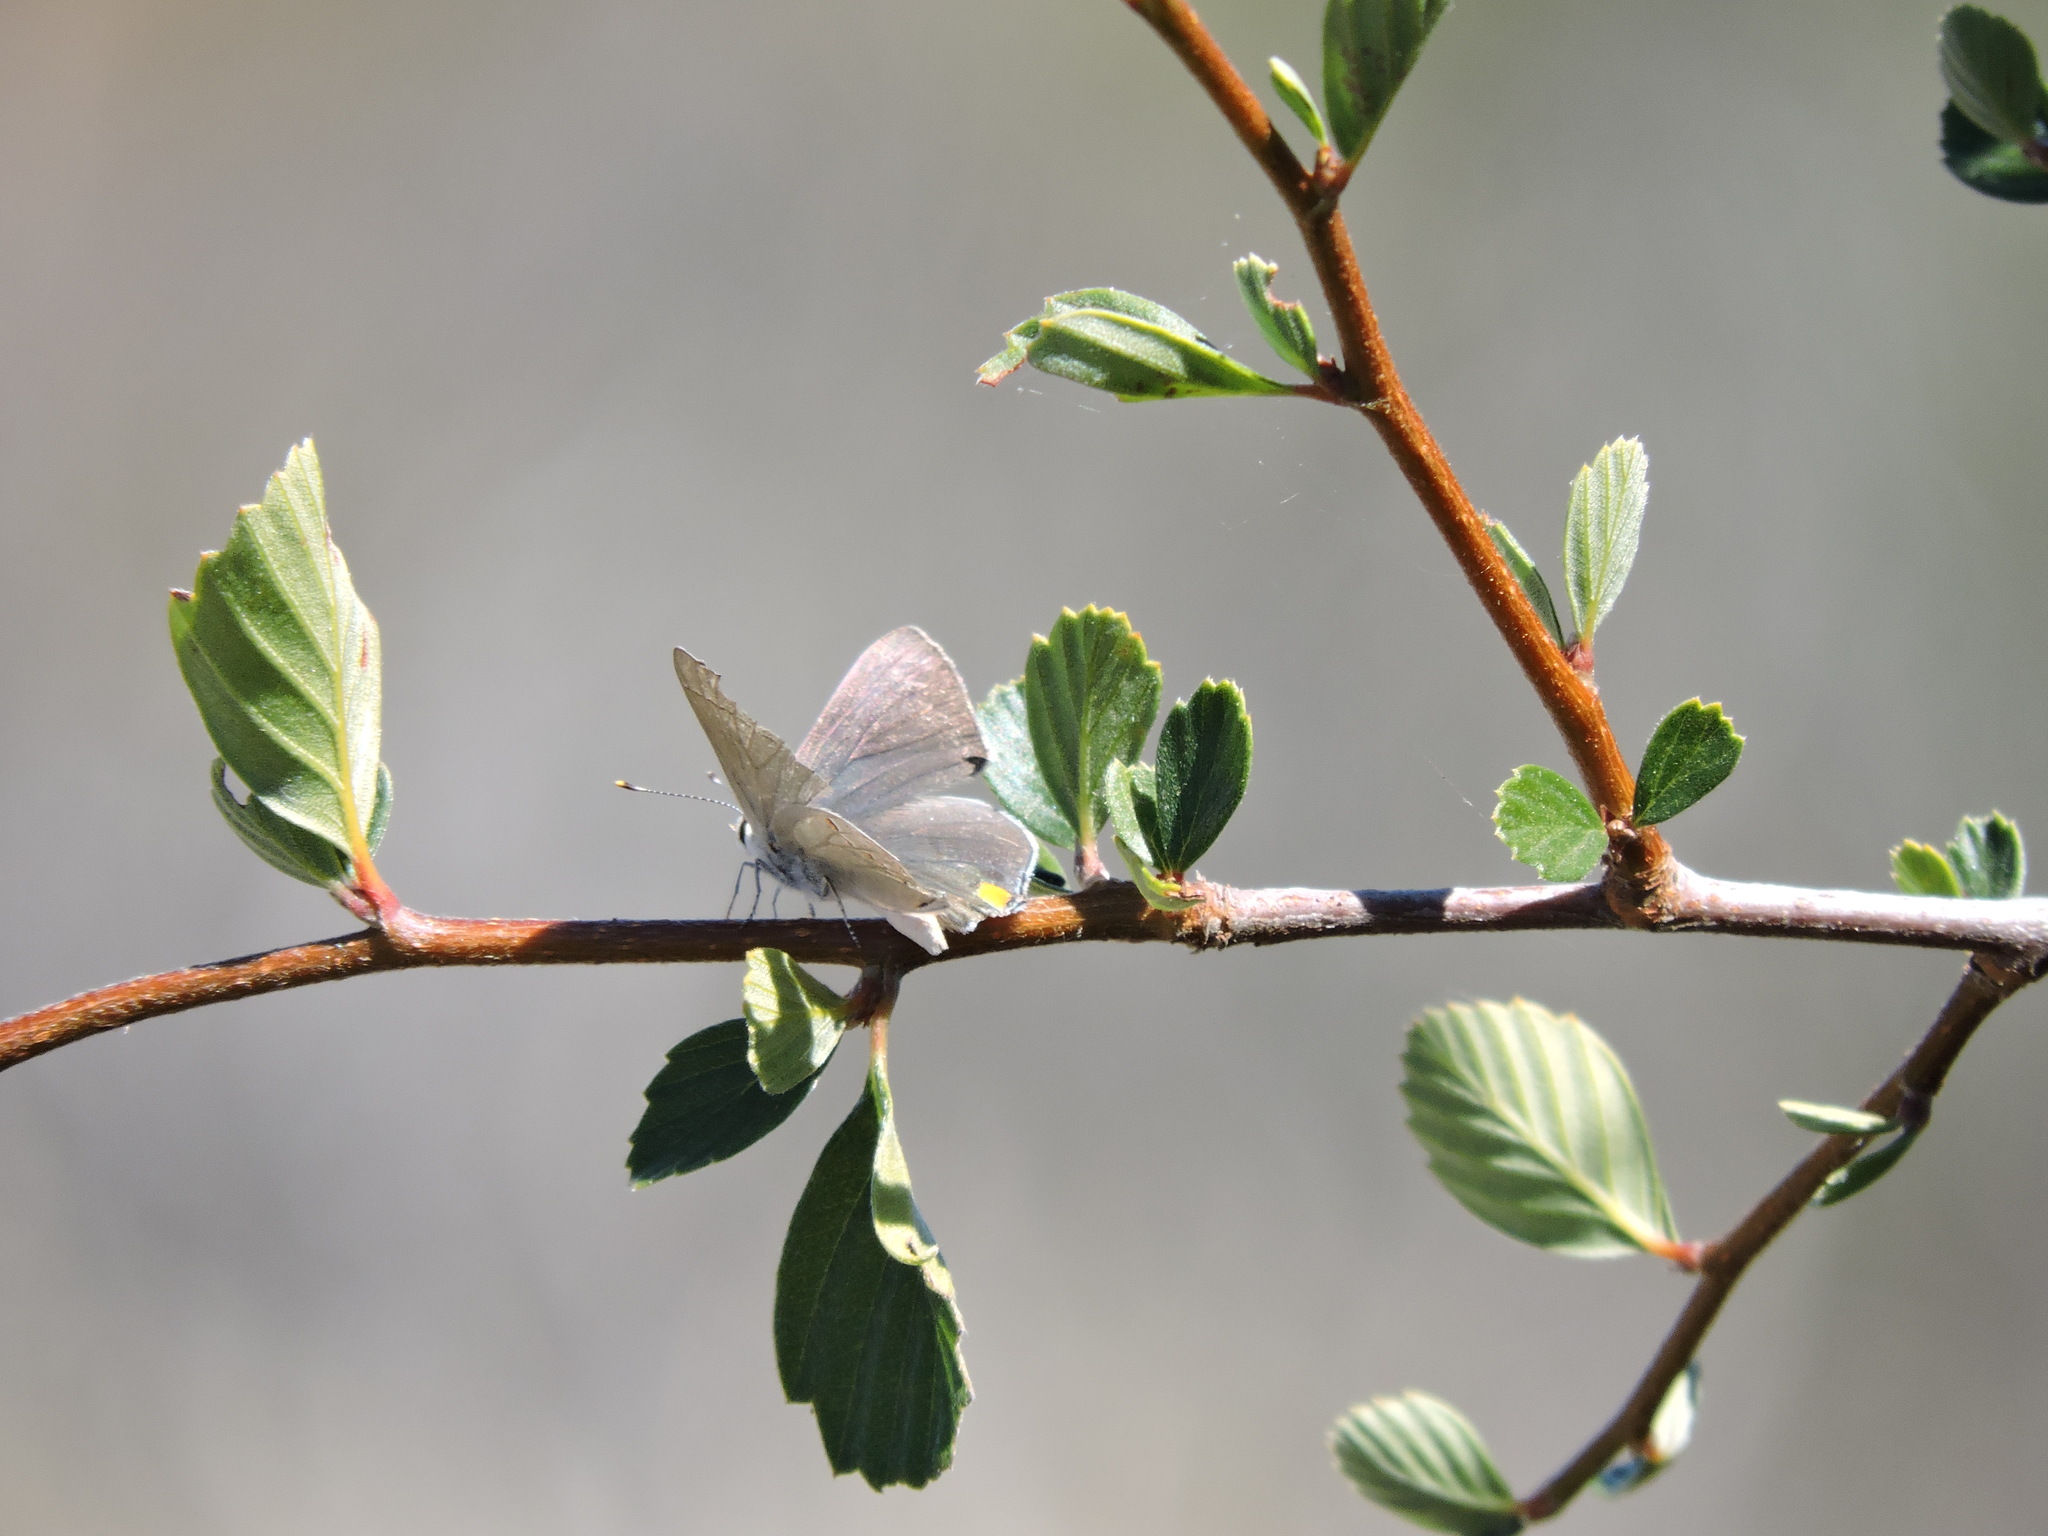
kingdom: Plantae
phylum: Tracheophyta
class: Magnoliopsida
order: Rosales
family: Rosaceae
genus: Cercocarpus
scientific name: Cercocarpus betuloides
